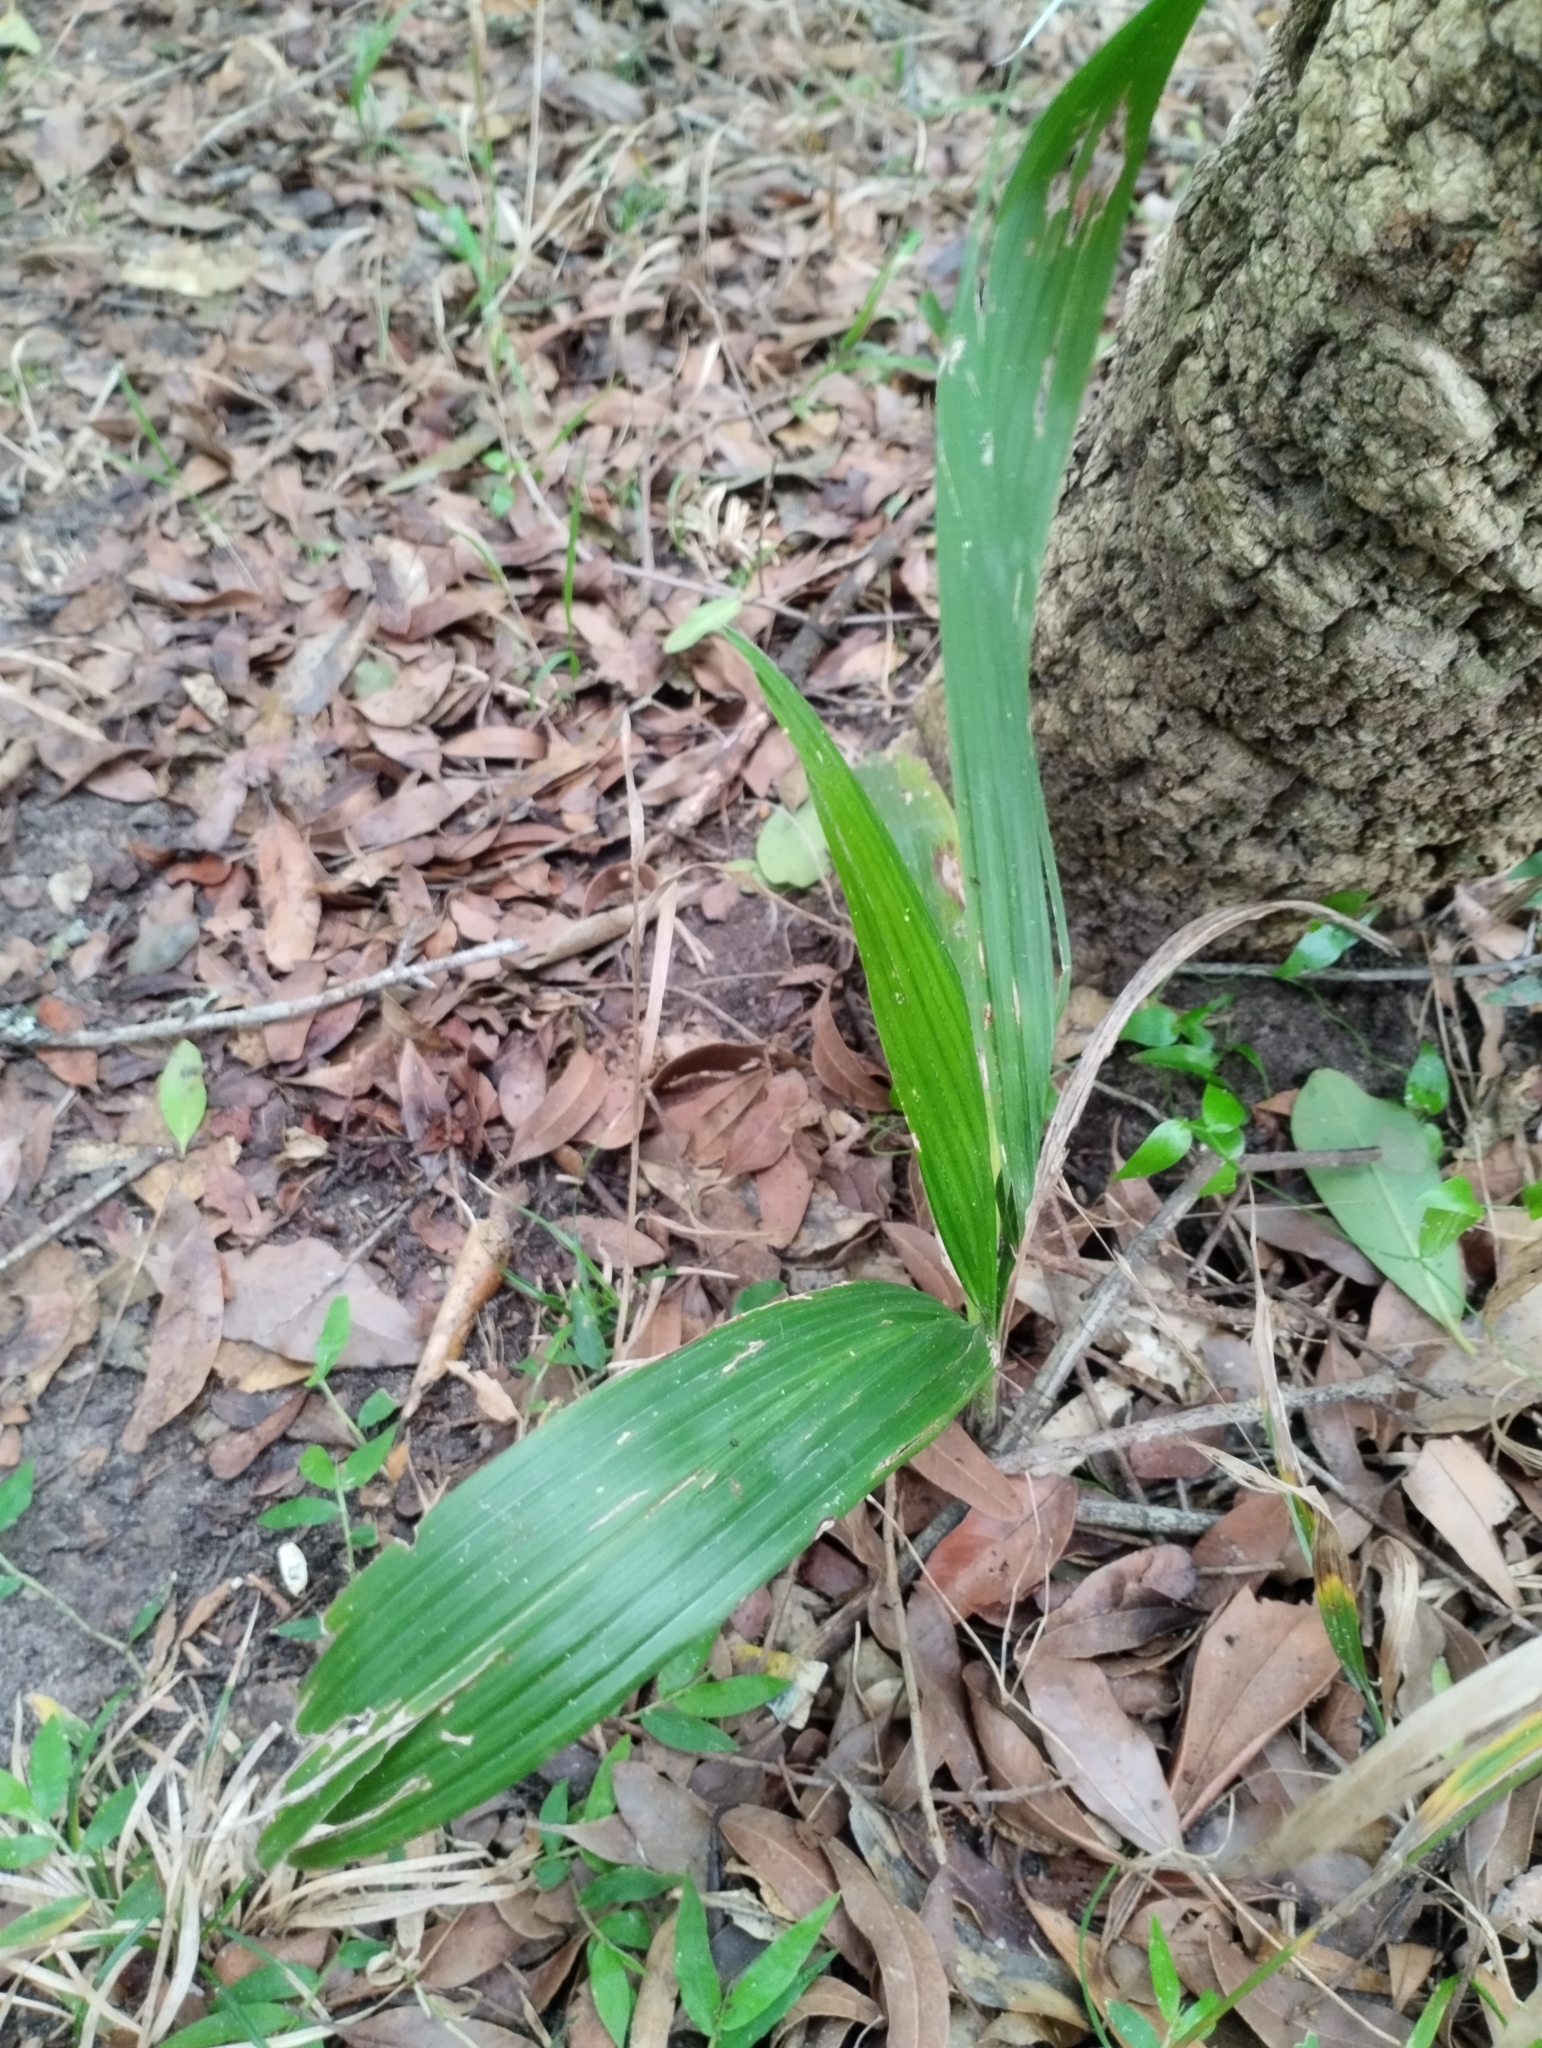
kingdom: Plantae
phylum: Tracheophyta
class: Liliopsida
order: Arecales
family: Arecaceae
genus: Syagrus
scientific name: Syagrus romanzoffiana
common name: Queen palm
